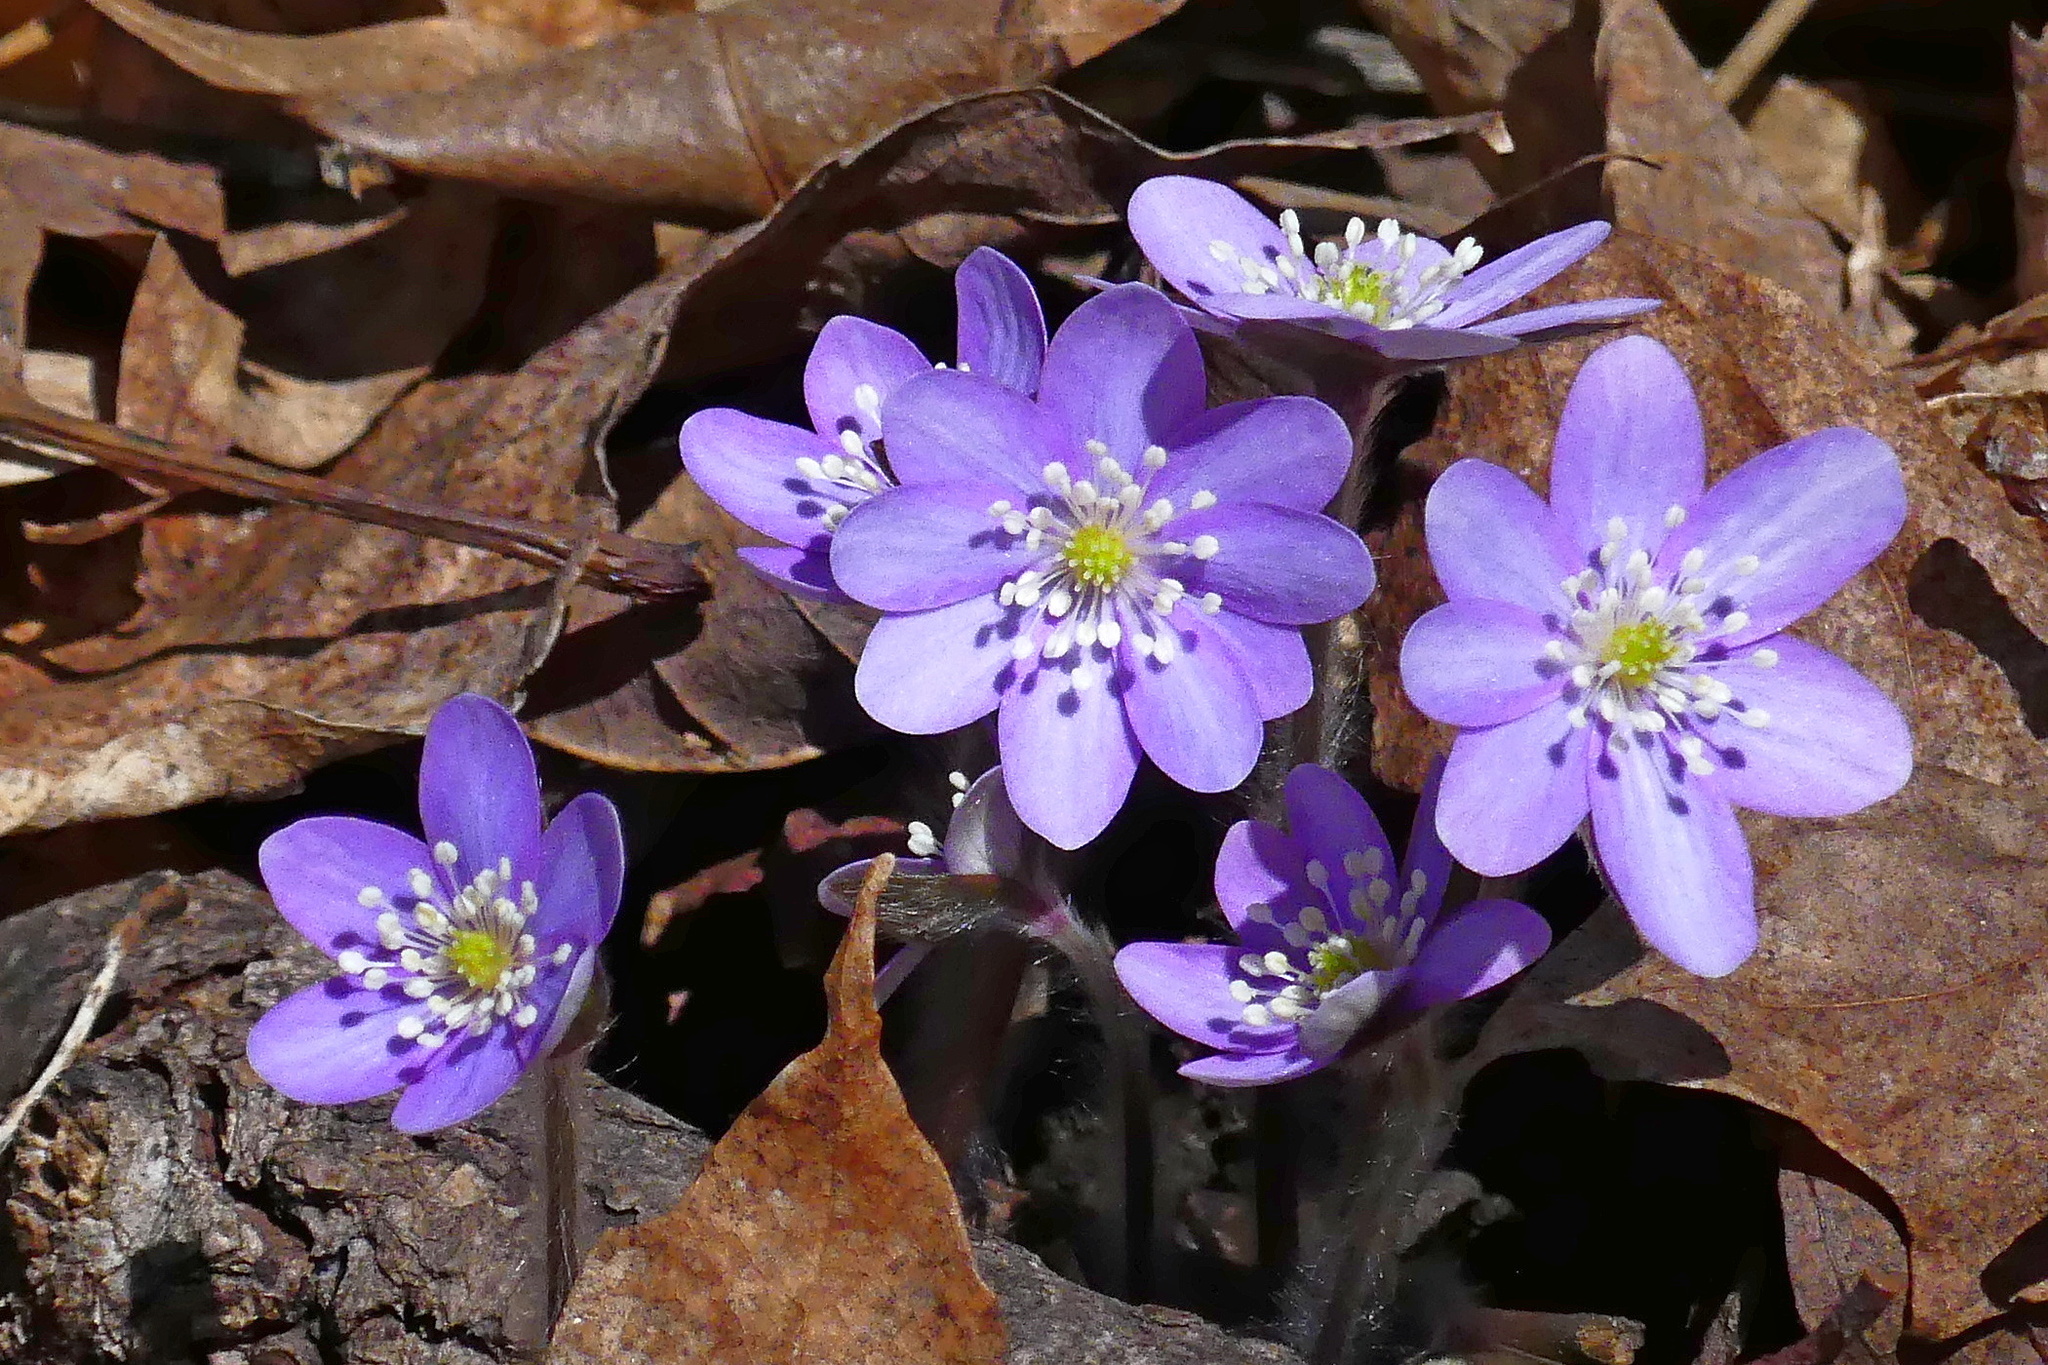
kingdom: Plantae
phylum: Tracheophyta
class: Magnoliopsida
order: Ranunculales
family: Ranunculaceae
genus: Hepatica
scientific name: Hepatica acutiloba
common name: Sharp-lobed hepatica
